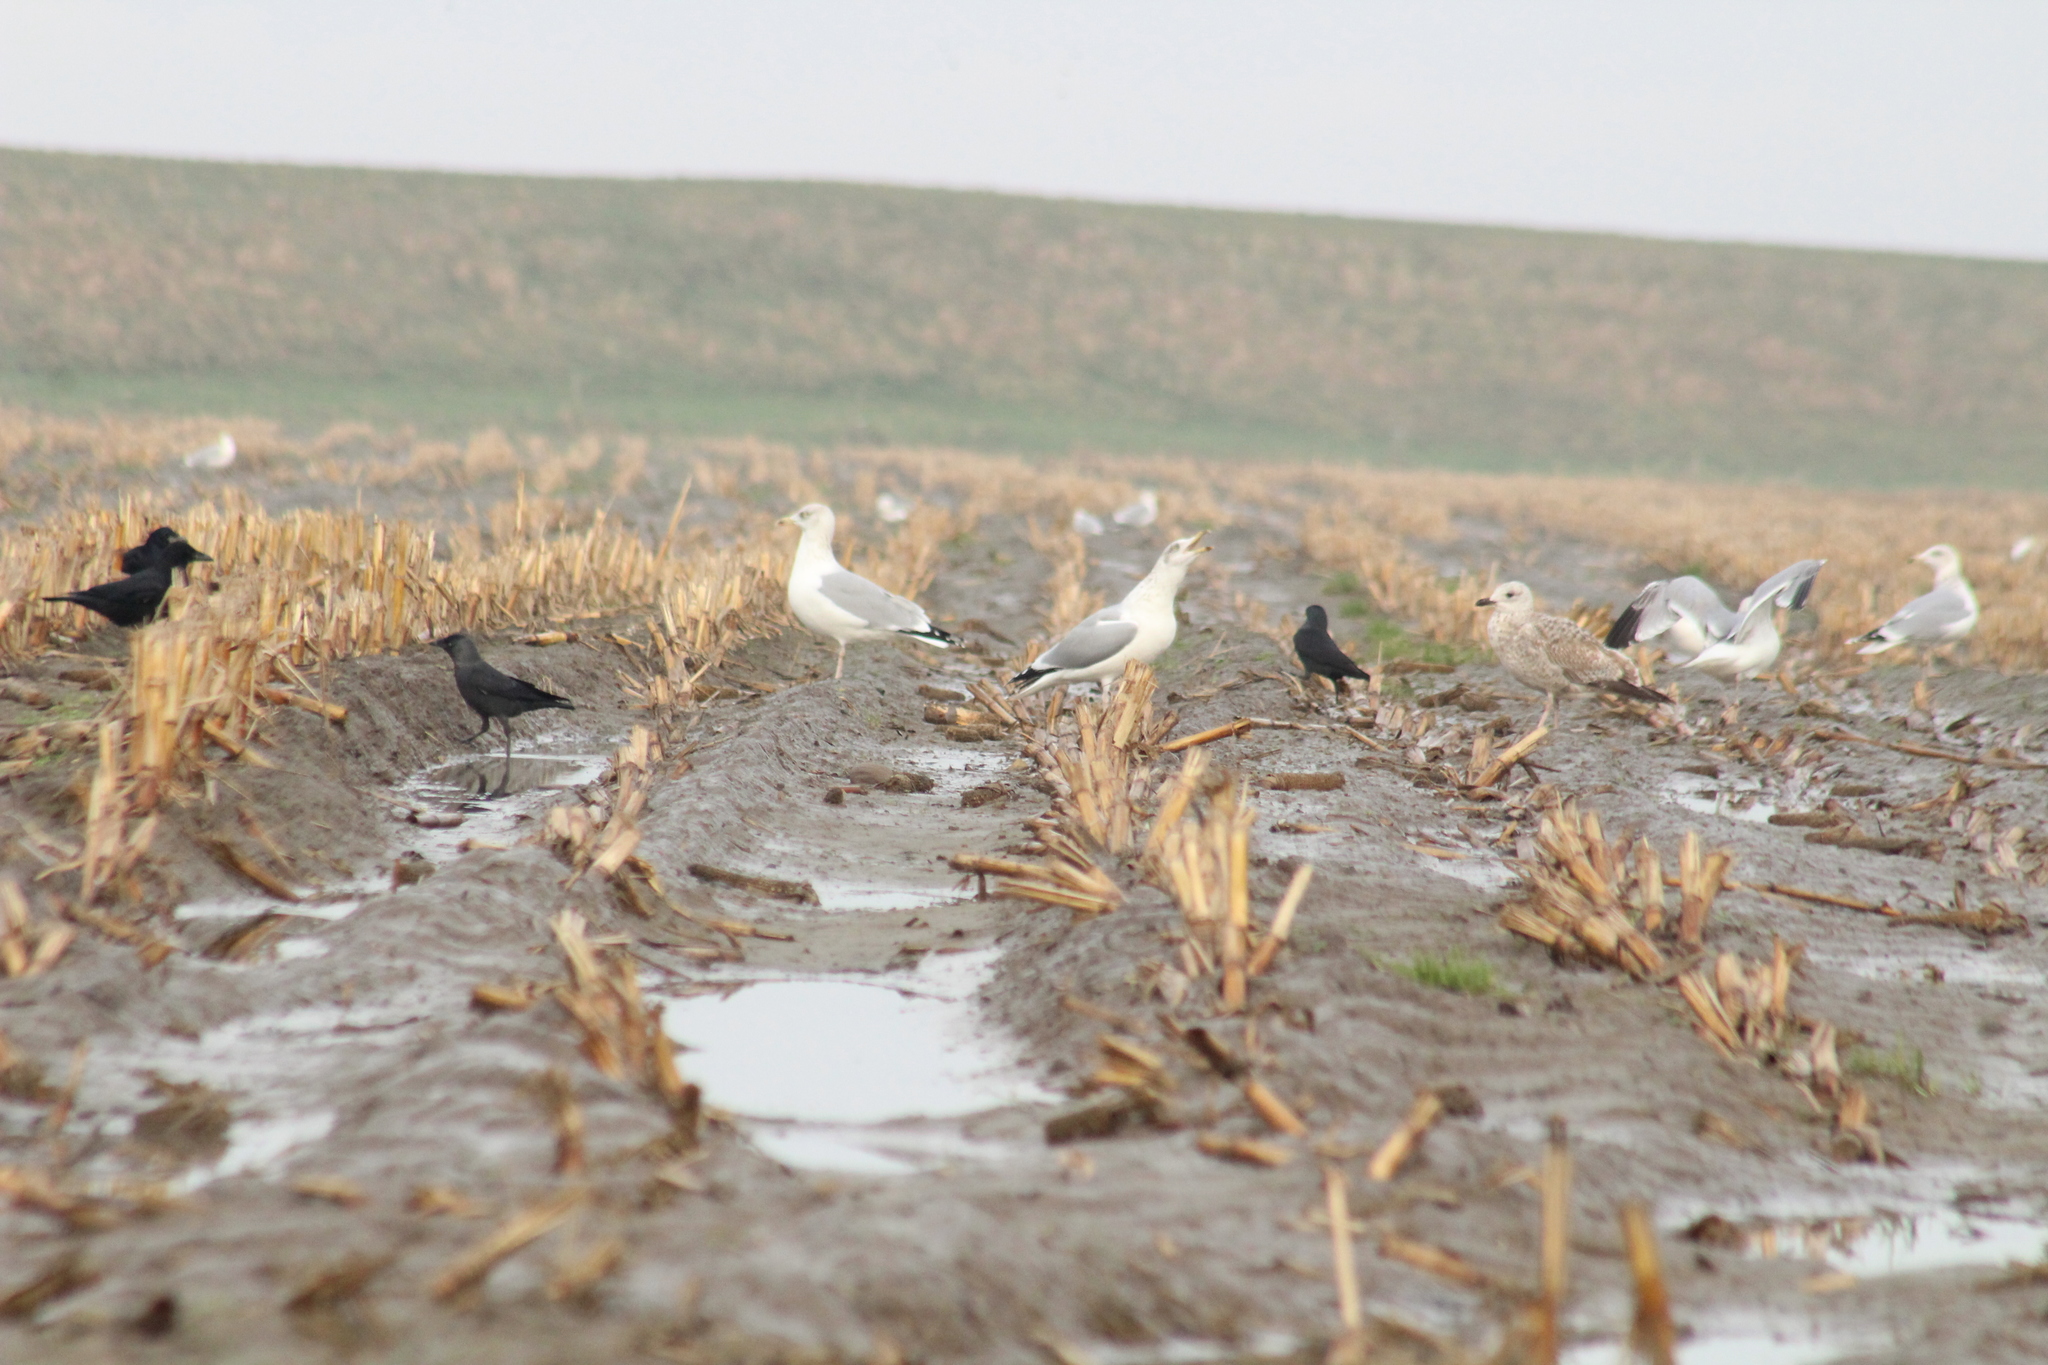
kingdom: Animalia
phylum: Chordata
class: Aves
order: Charadriiformes
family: Laridae
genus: Larus
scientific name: Larus argentatus
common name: Herring gull
